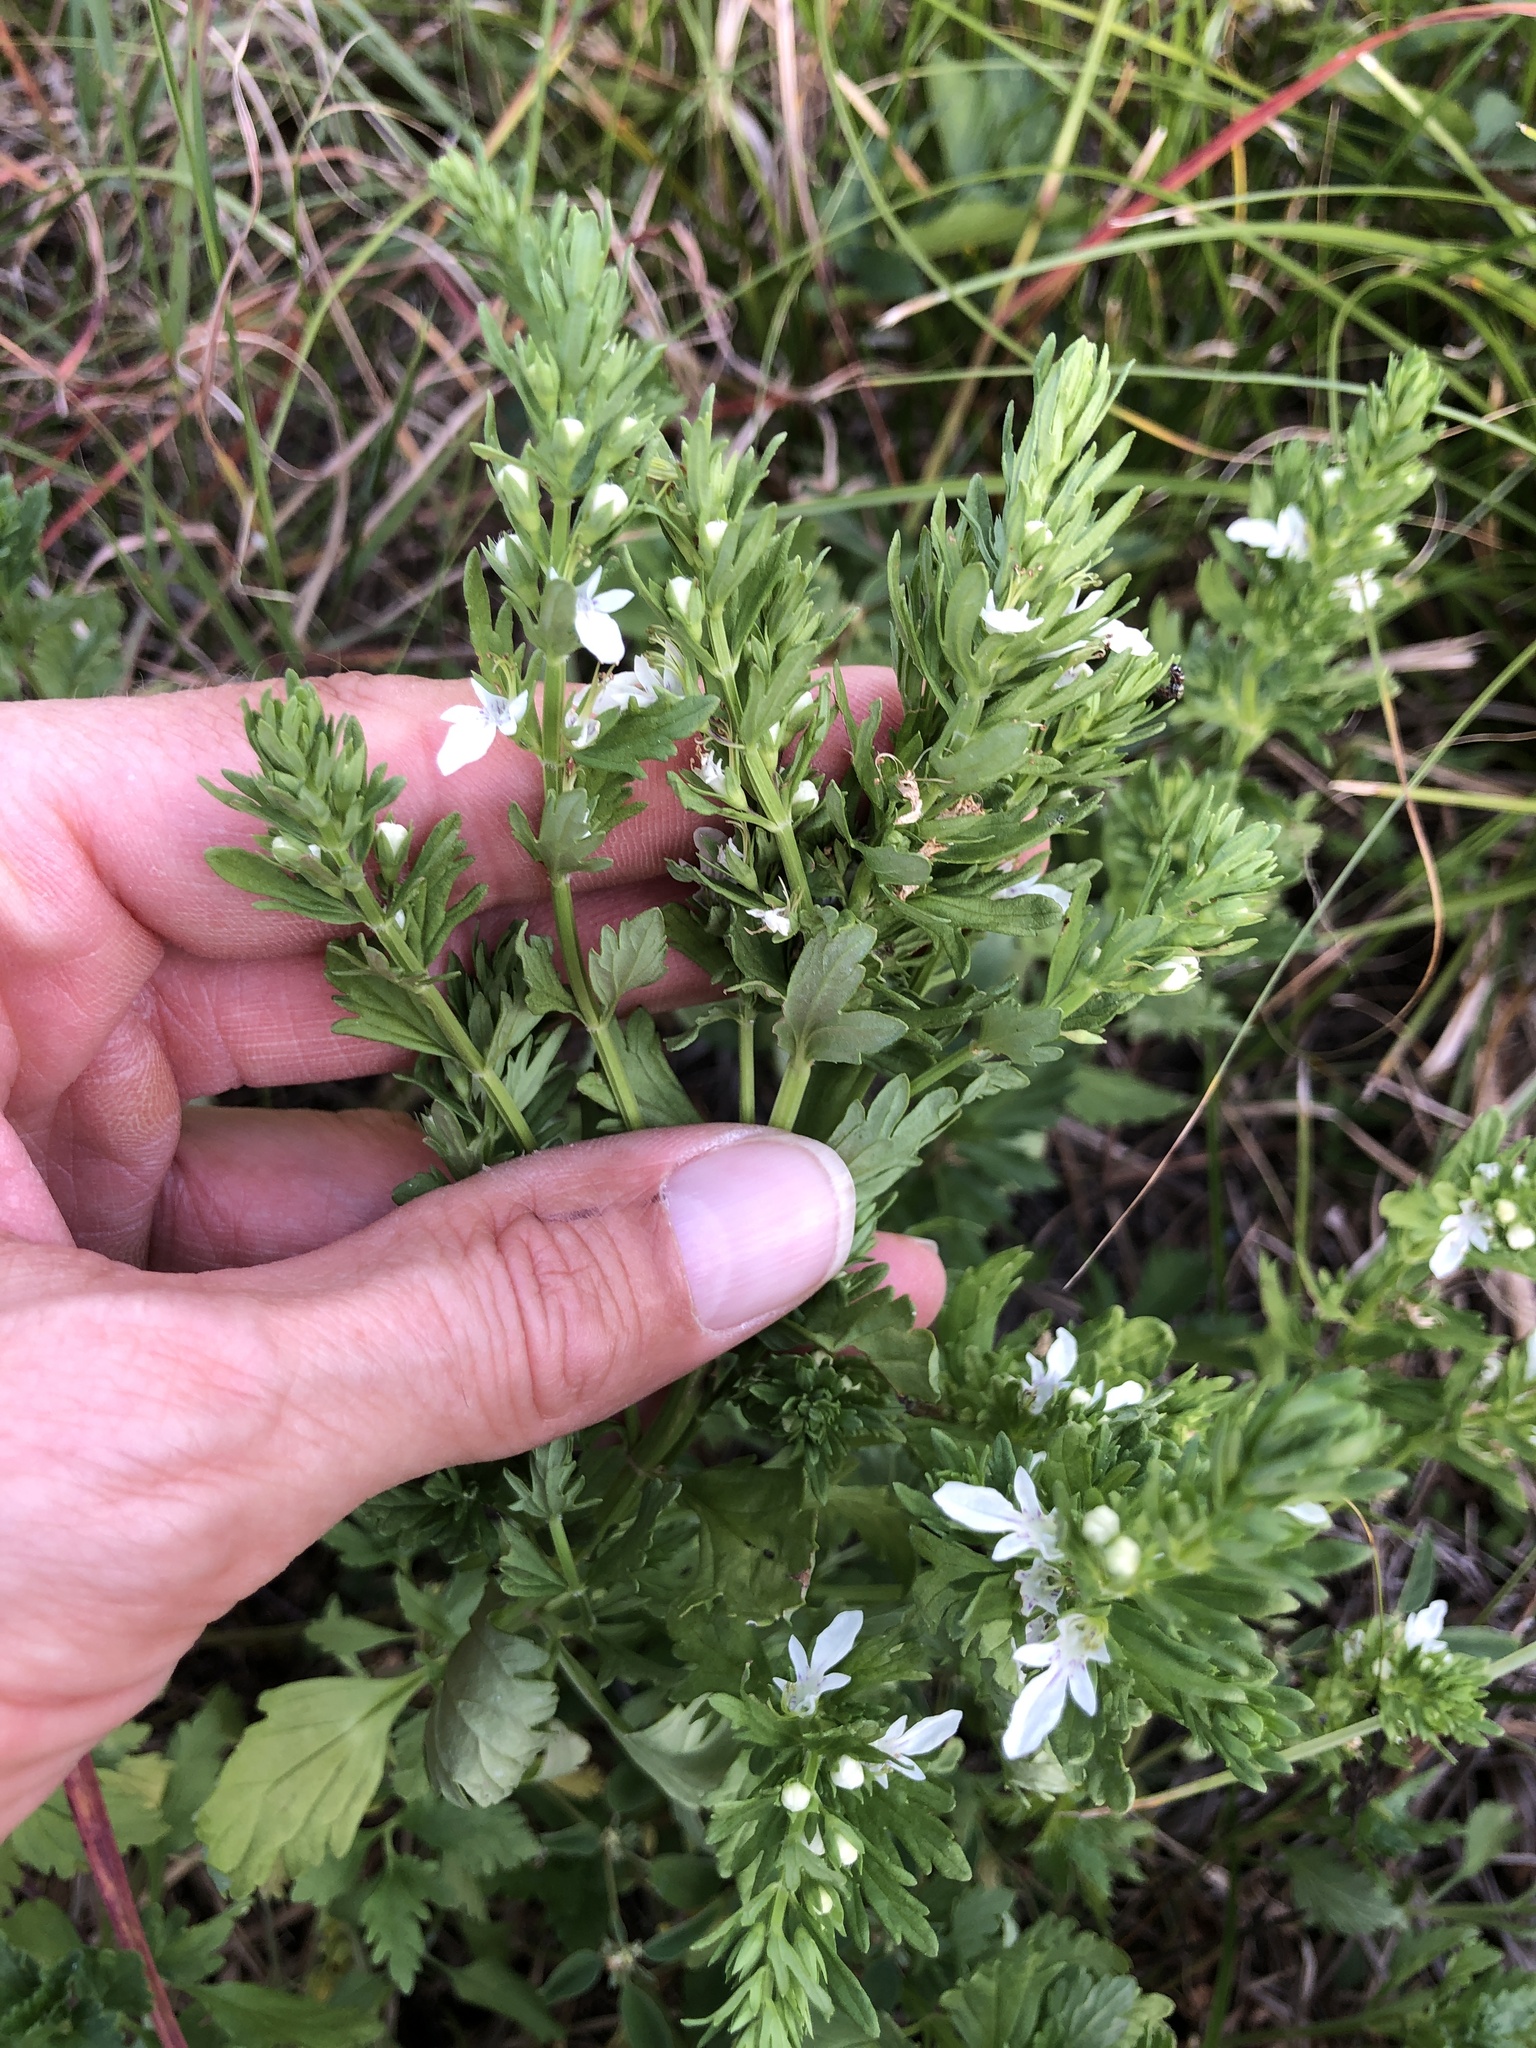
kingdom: Plantae
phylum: Tracheophyta
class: Magnoliopsida
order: Lamiales
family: Lamiaceae
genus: Teucrium
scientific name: Teucrium cubense
